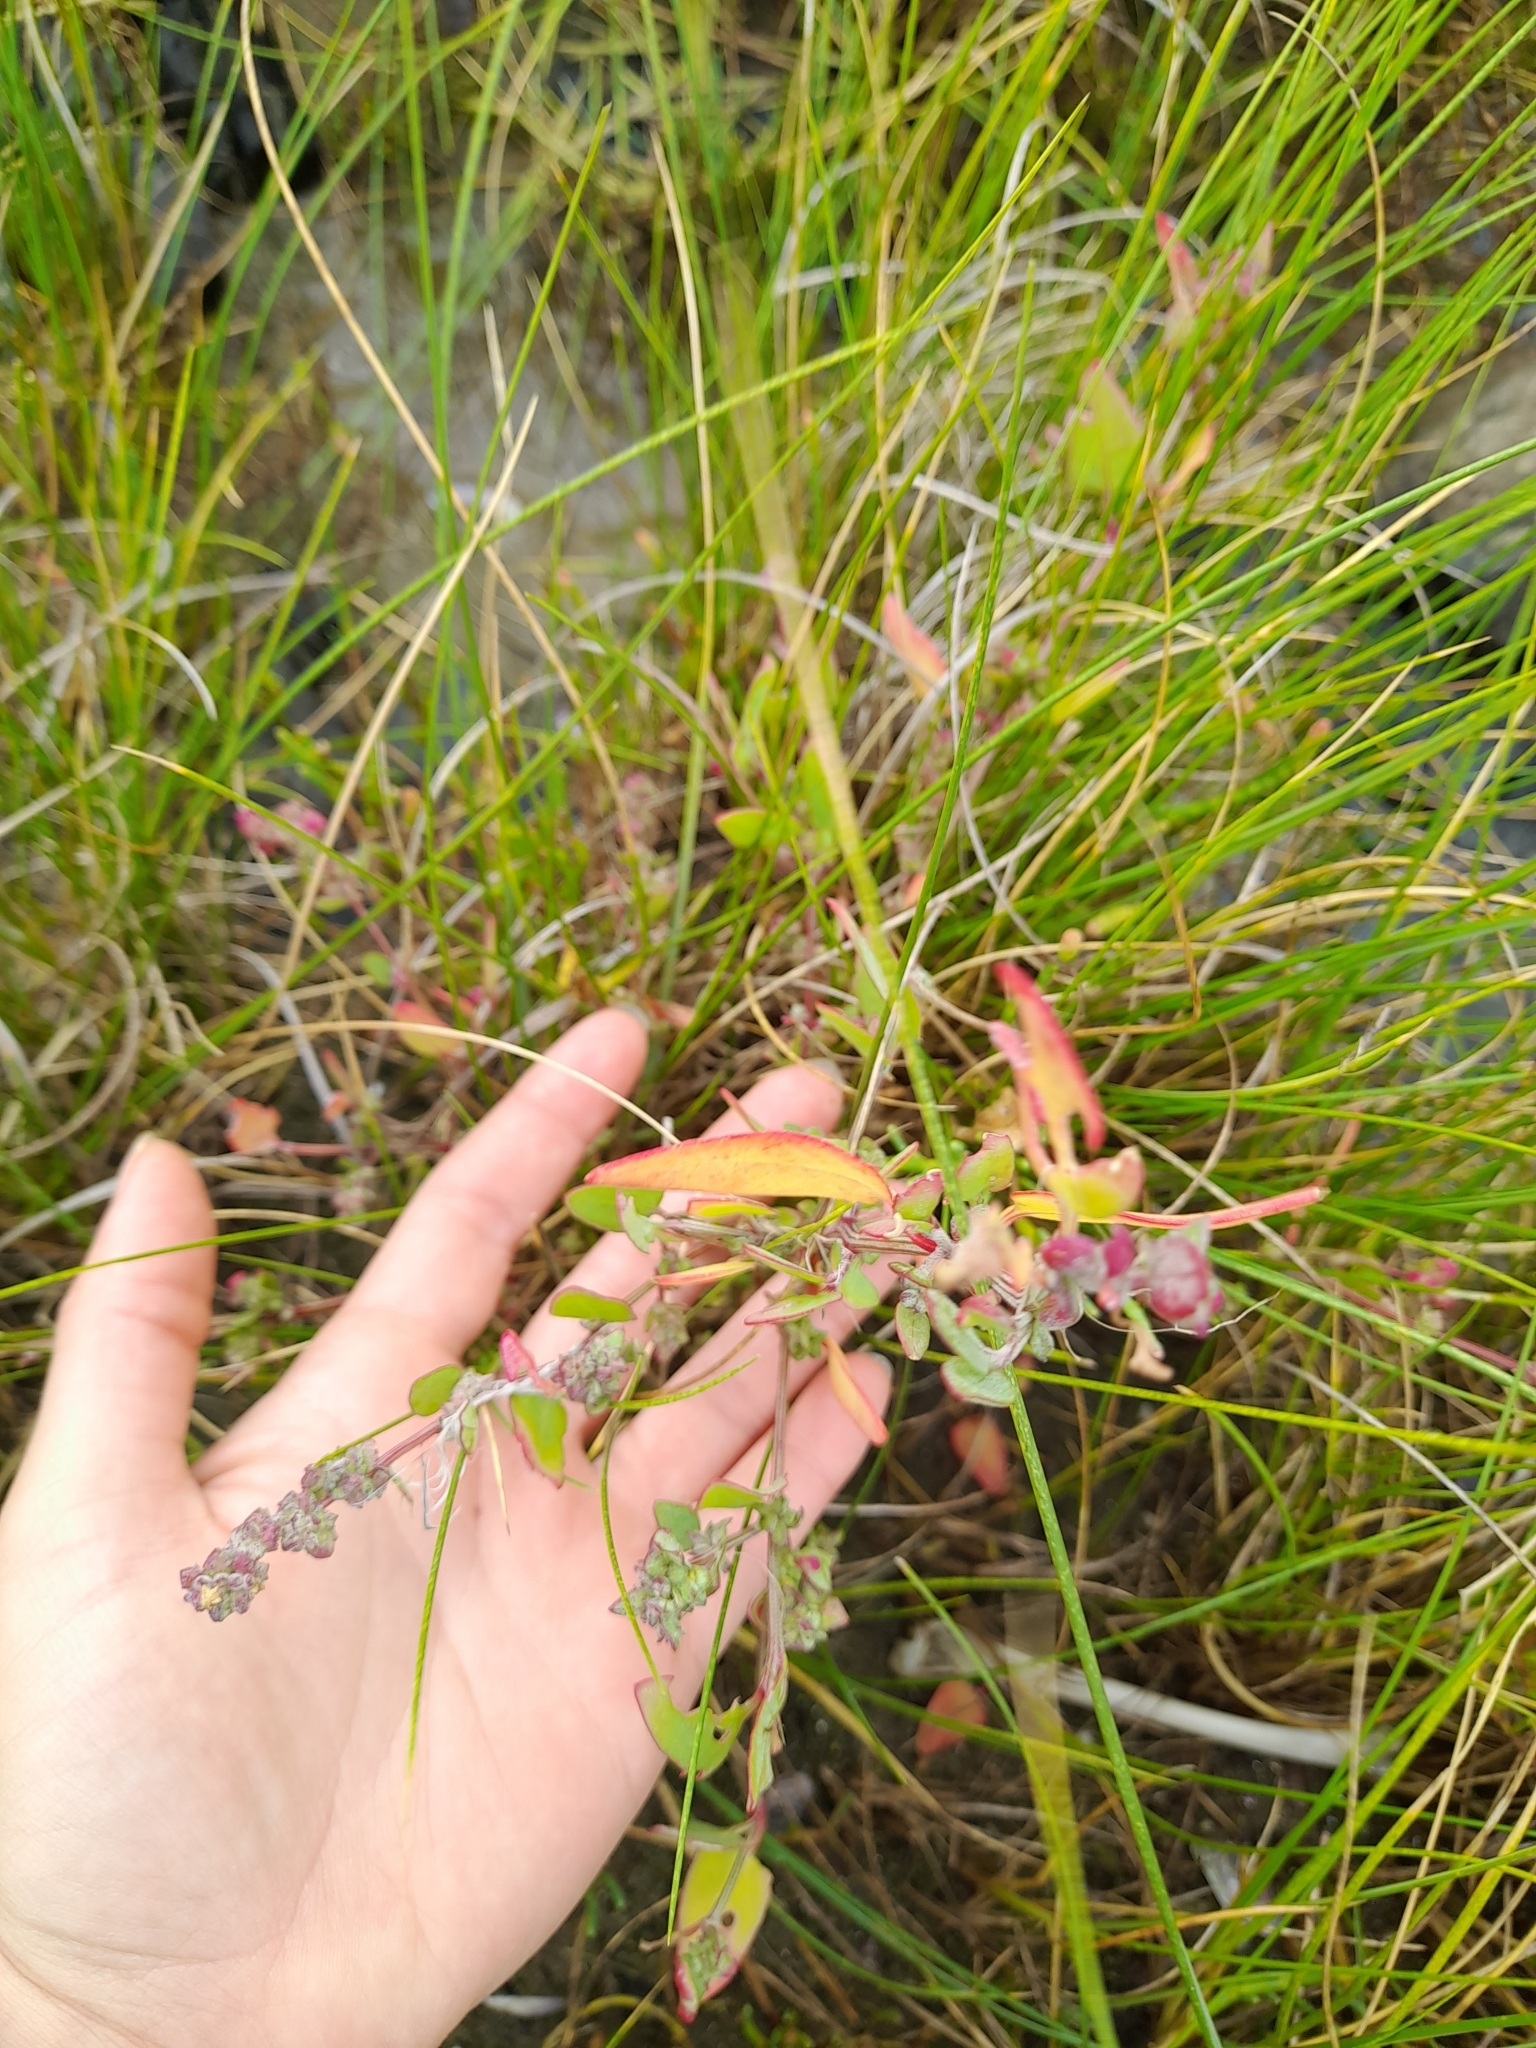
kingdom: Plantae
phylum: Tracheophyta
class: Magnoliopsida
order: Caryophyllales
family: Amaranthaceae
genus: Atriplex
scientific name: Atriplex prostrata
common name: Spear-leaved orache
